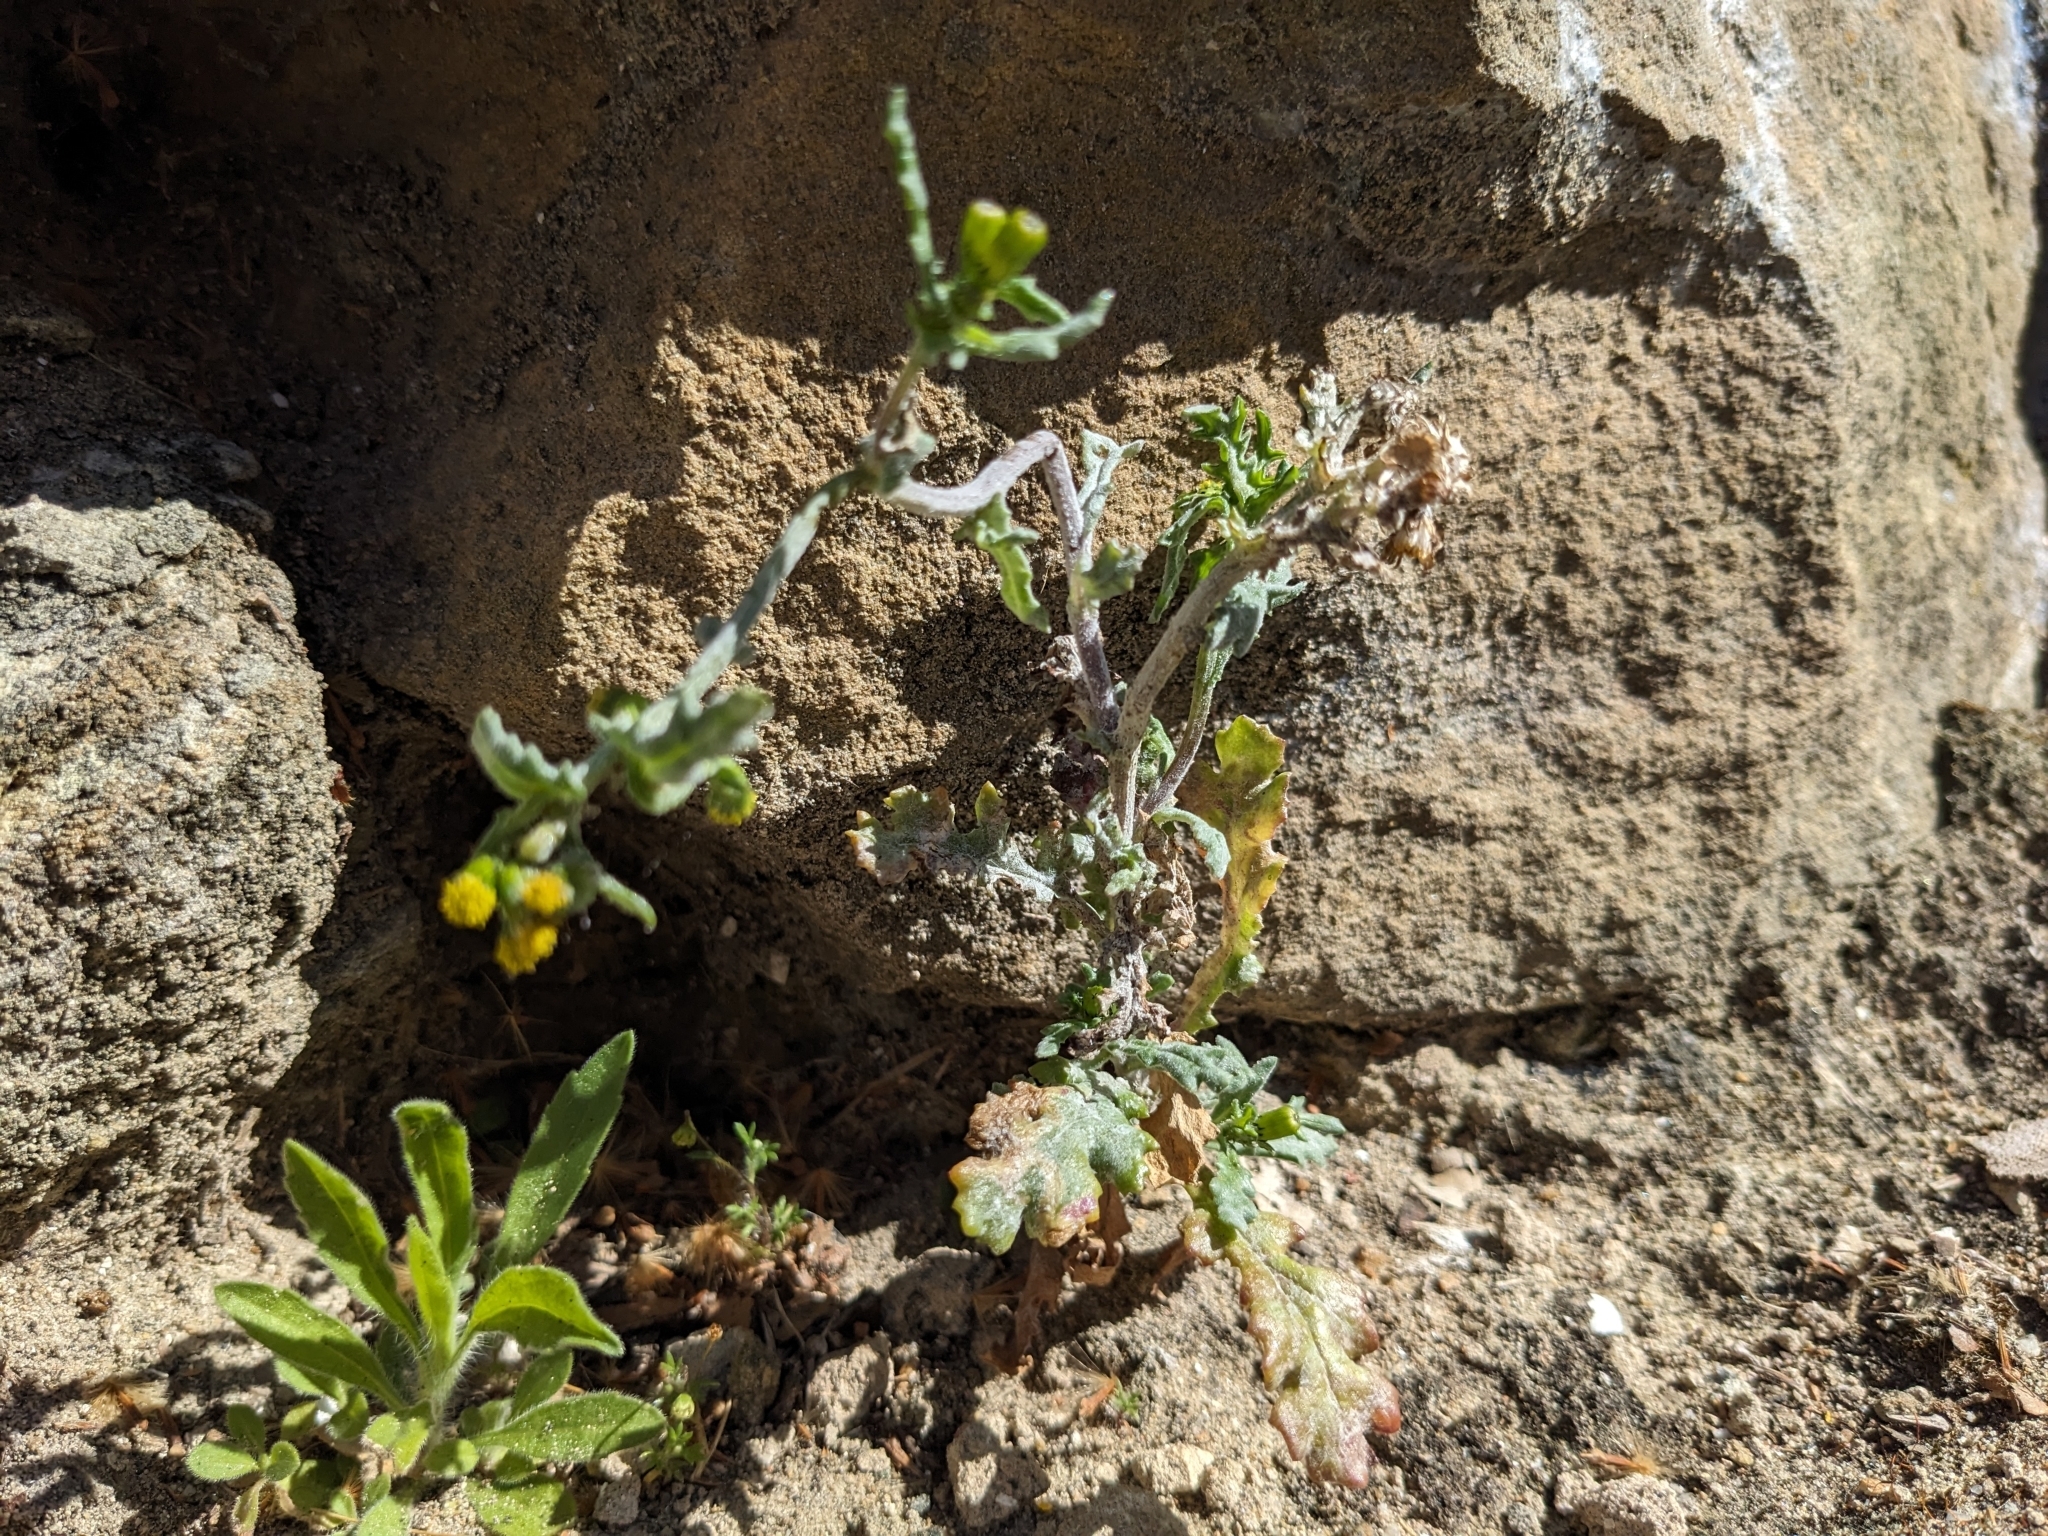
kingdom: Plantae
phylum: Tracheophyta
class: Magnoliopsida
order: Asterales
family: Asteraceae
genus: Senecio
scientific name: Senecio vulgaris
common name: Old-man-in-the-spring
